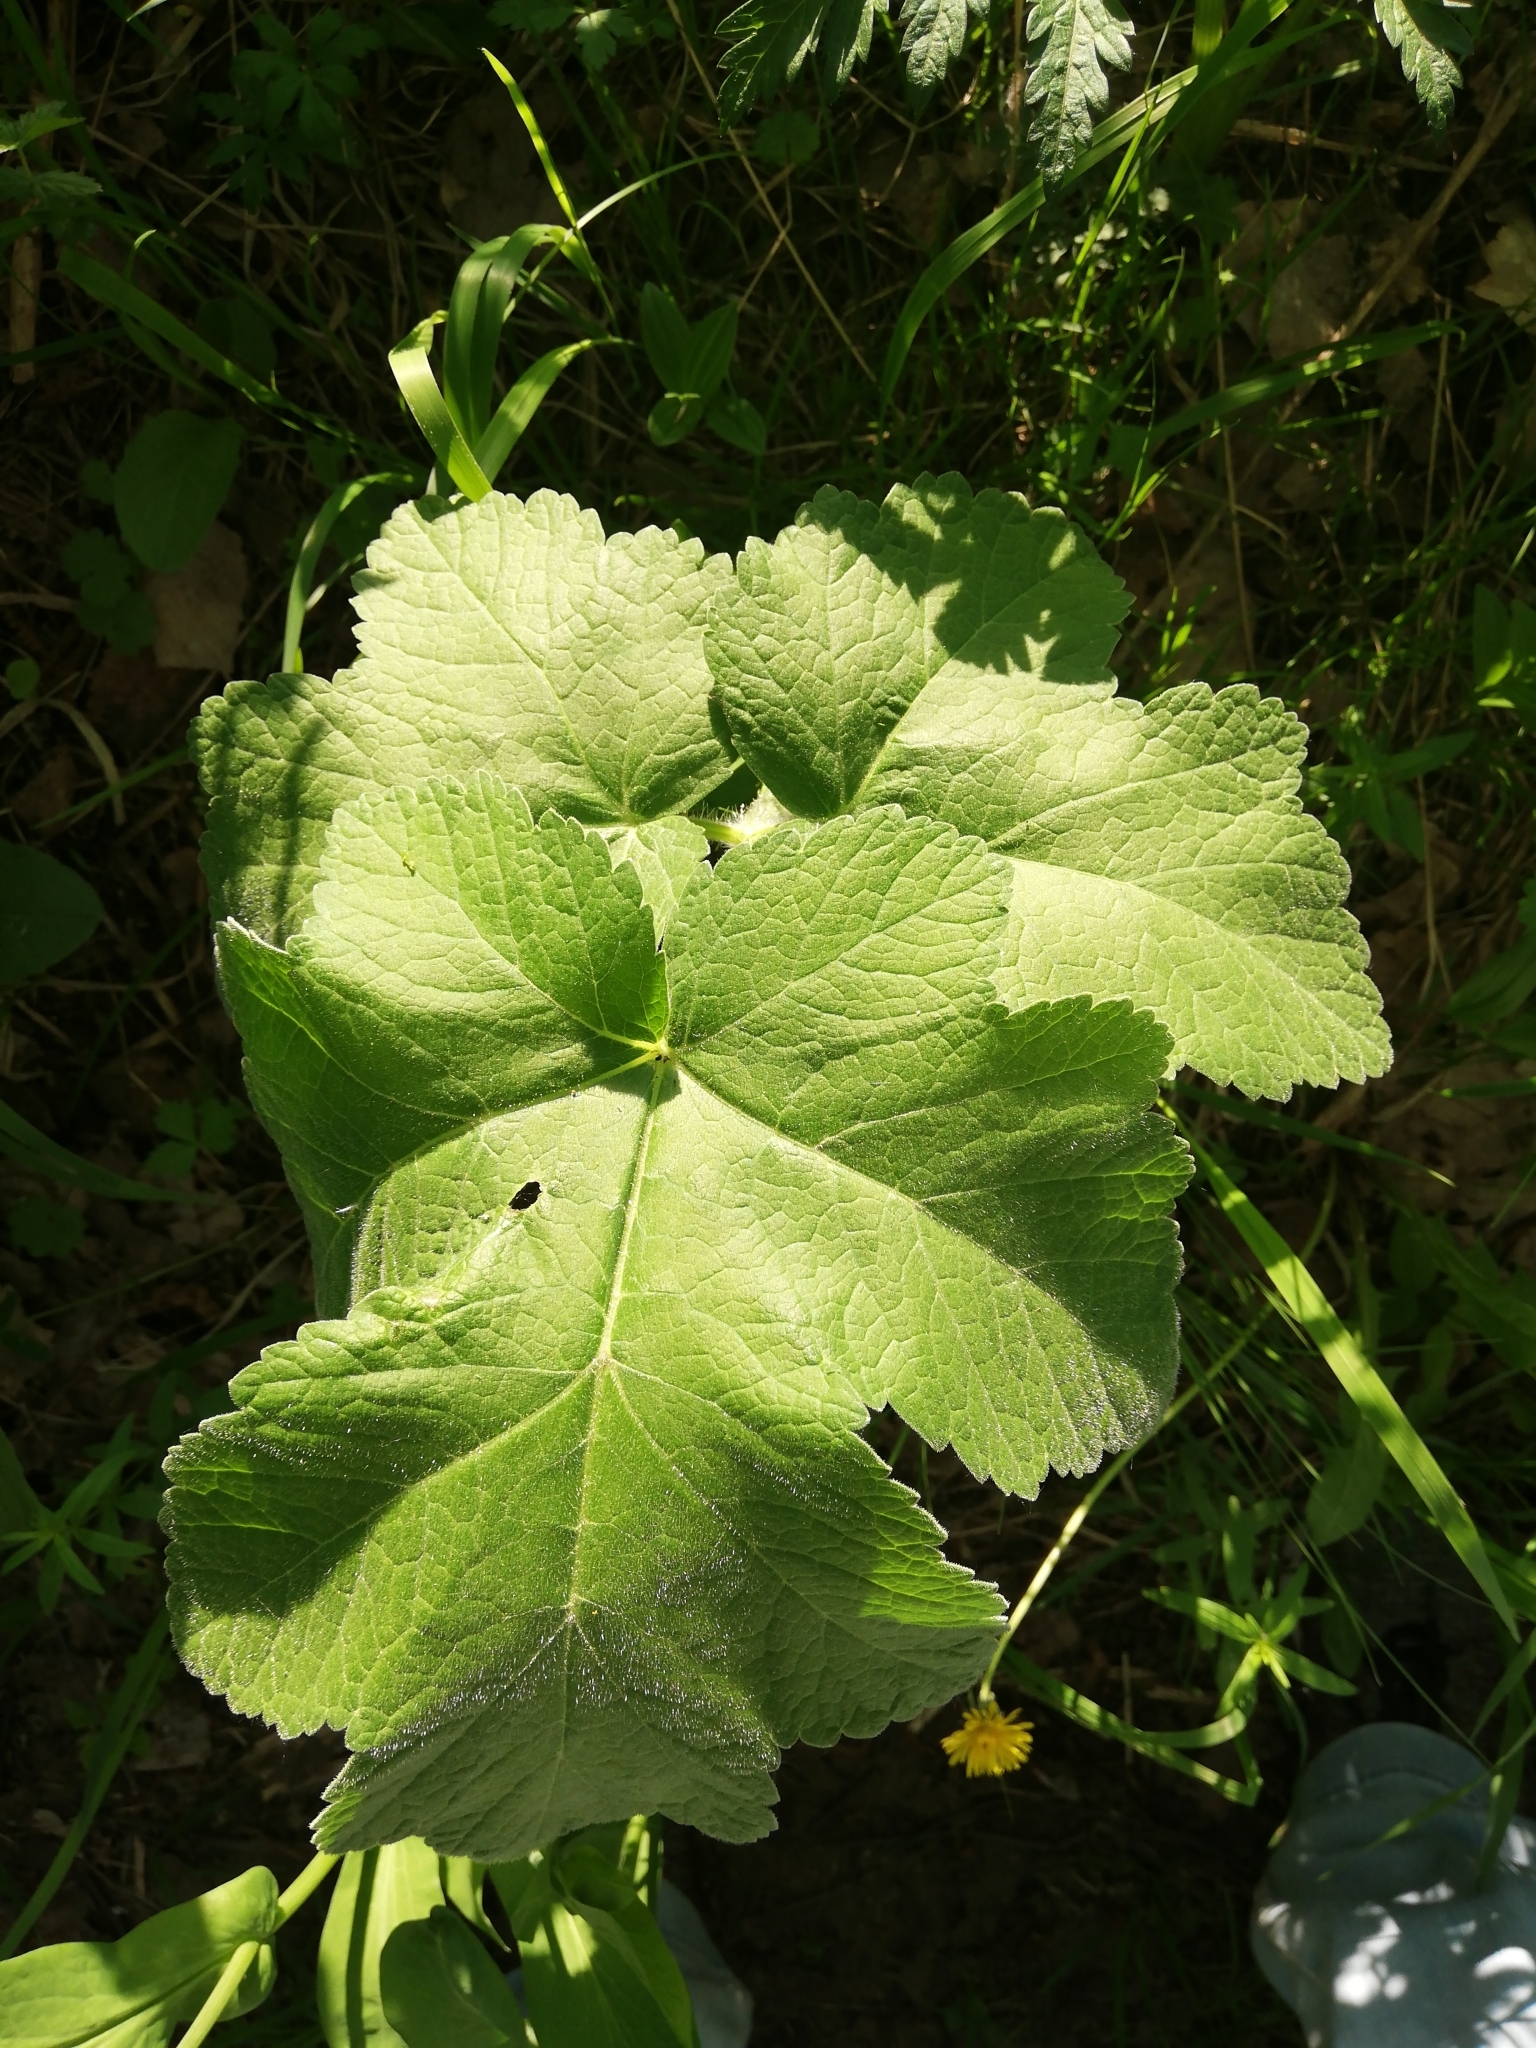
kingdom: Plantae
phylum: Tracheophyta
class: Magnoliopsida
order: Apiales
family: Apiaceae
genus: Heracleum
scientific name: Heracleum dissectum
